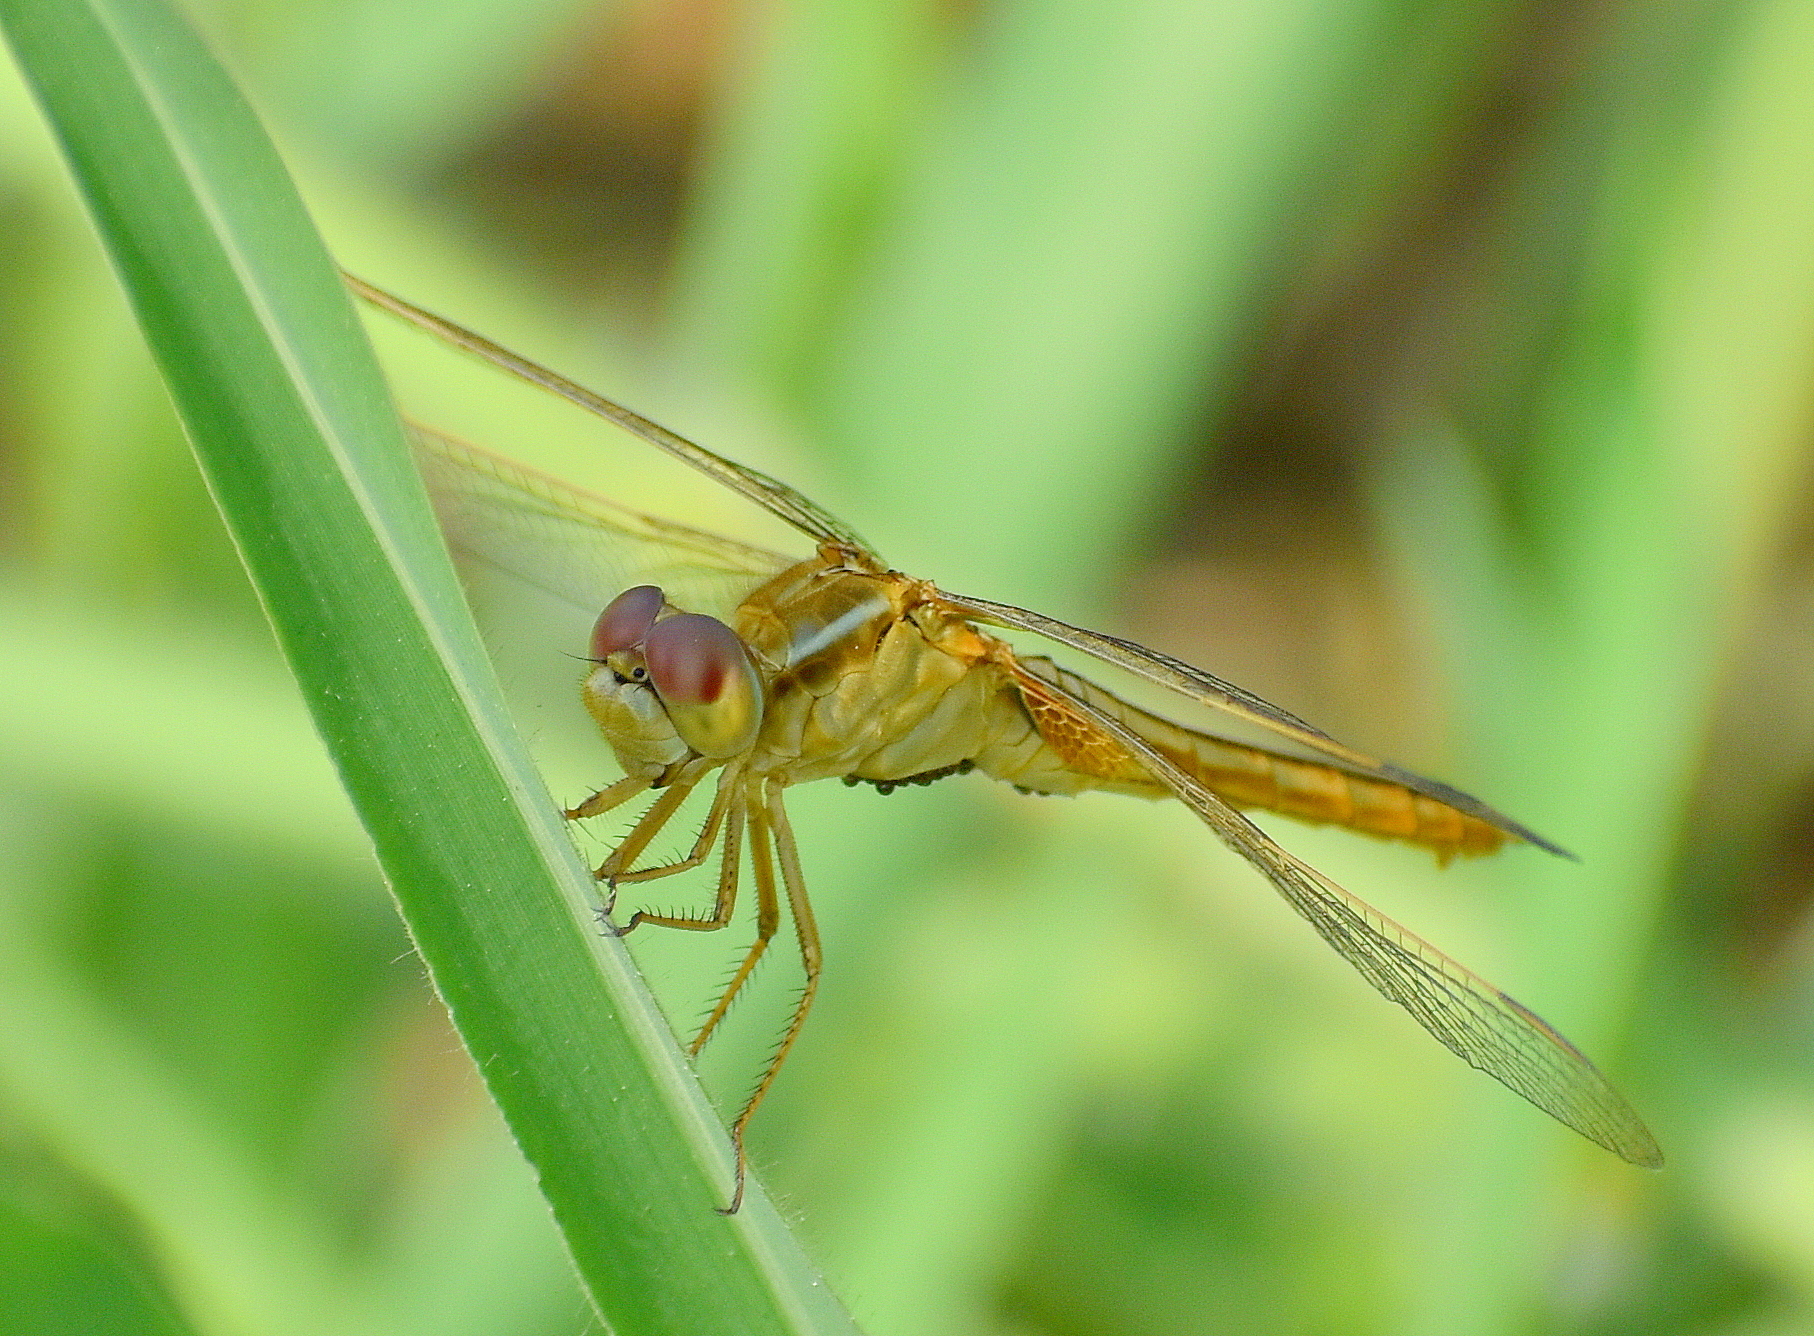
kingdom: Animalia
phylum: Arthropoda
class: Insecta
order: Odonata
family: Libellulidae
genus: Crocothemis
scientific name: Crocothemis servilia
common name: Scarlet skimmer
